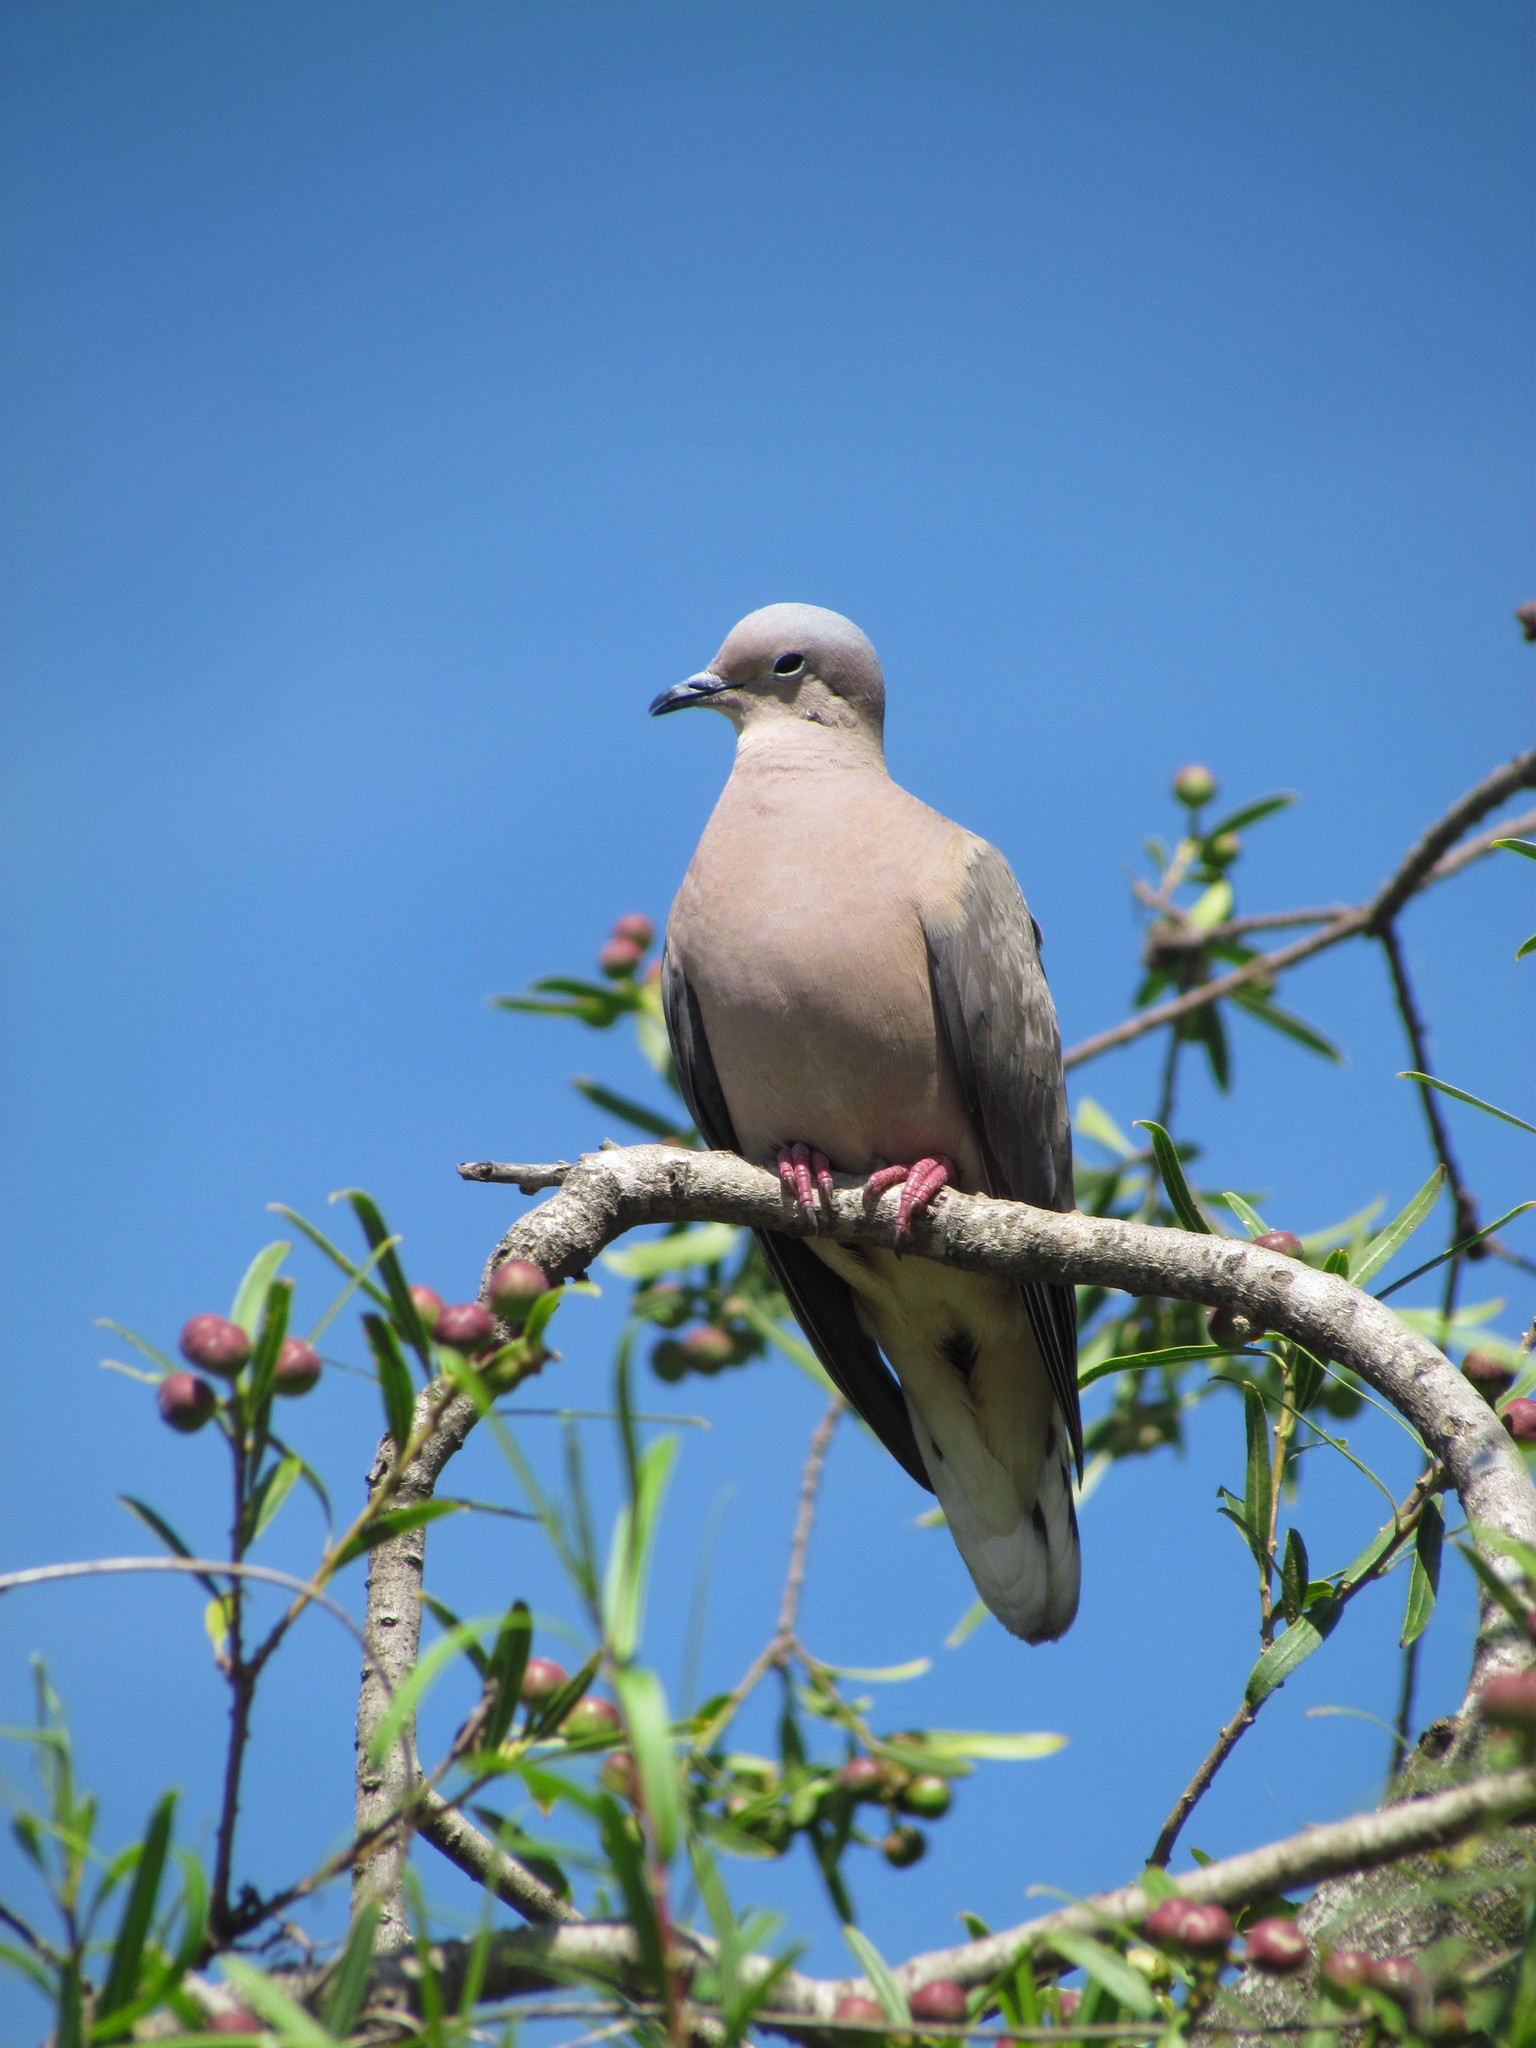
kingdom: Animalia
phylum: Chordata
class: Aves
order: Columbiformes
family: Columbidae
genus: Zenaida
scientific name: Zenaida auriculata
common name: Eared dove
